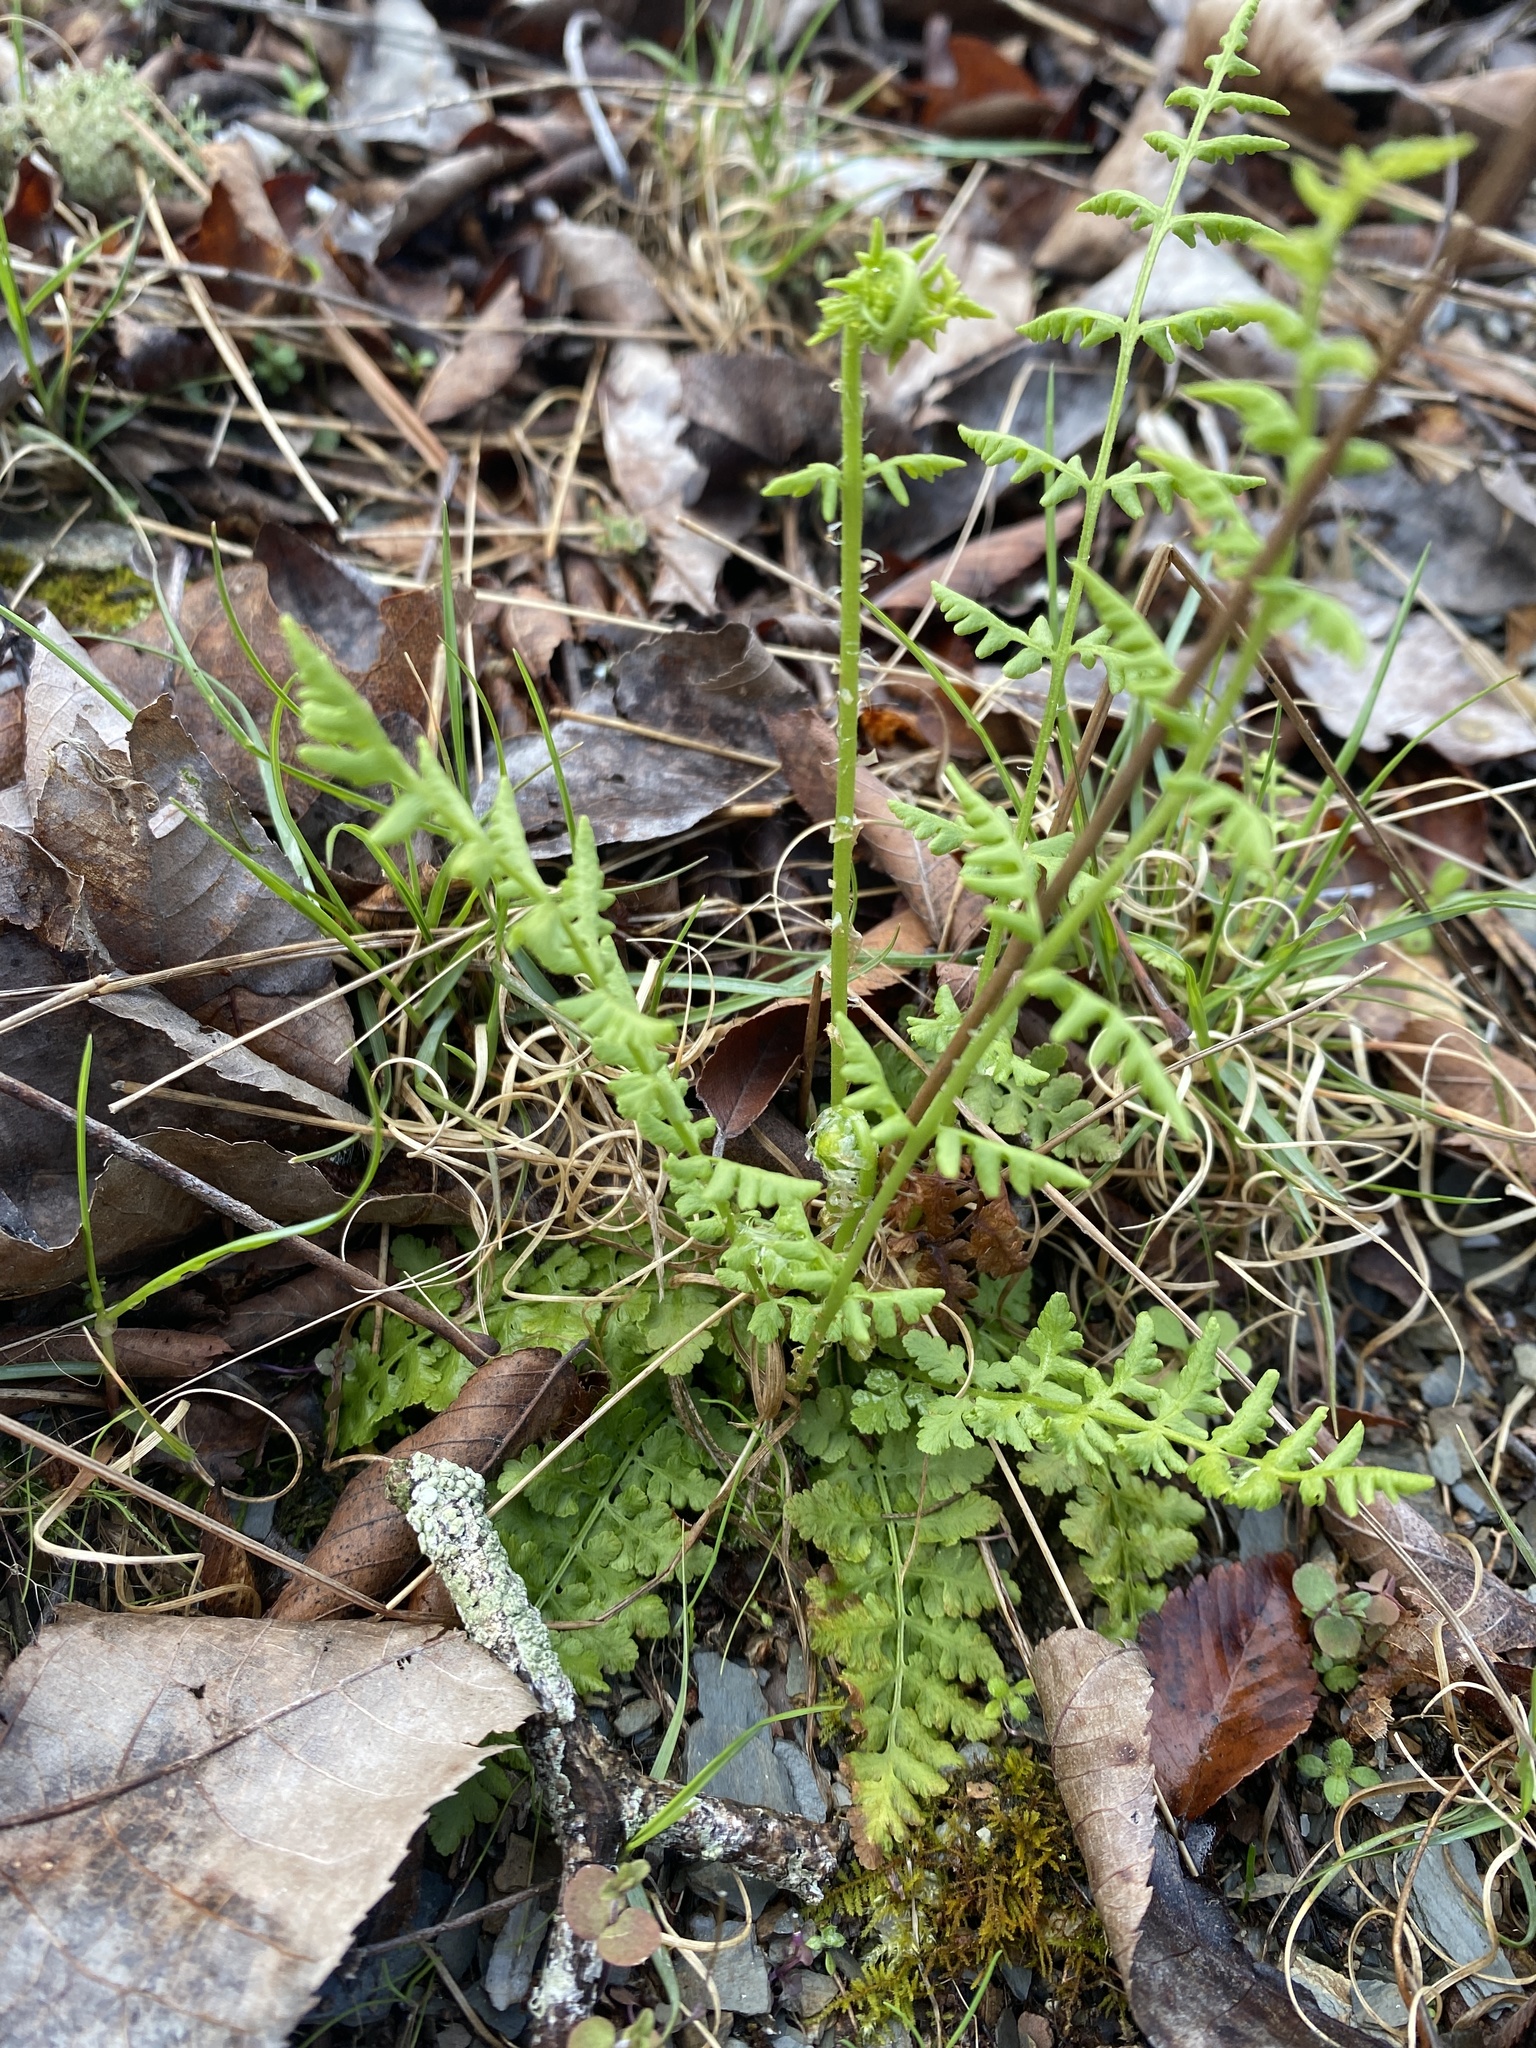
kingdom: Plantae
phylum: Tracheophyta
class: Polypodiopsida
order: Polypodiales
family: Woodsiaceae
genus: Physematium
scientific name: Physematium obtusum
